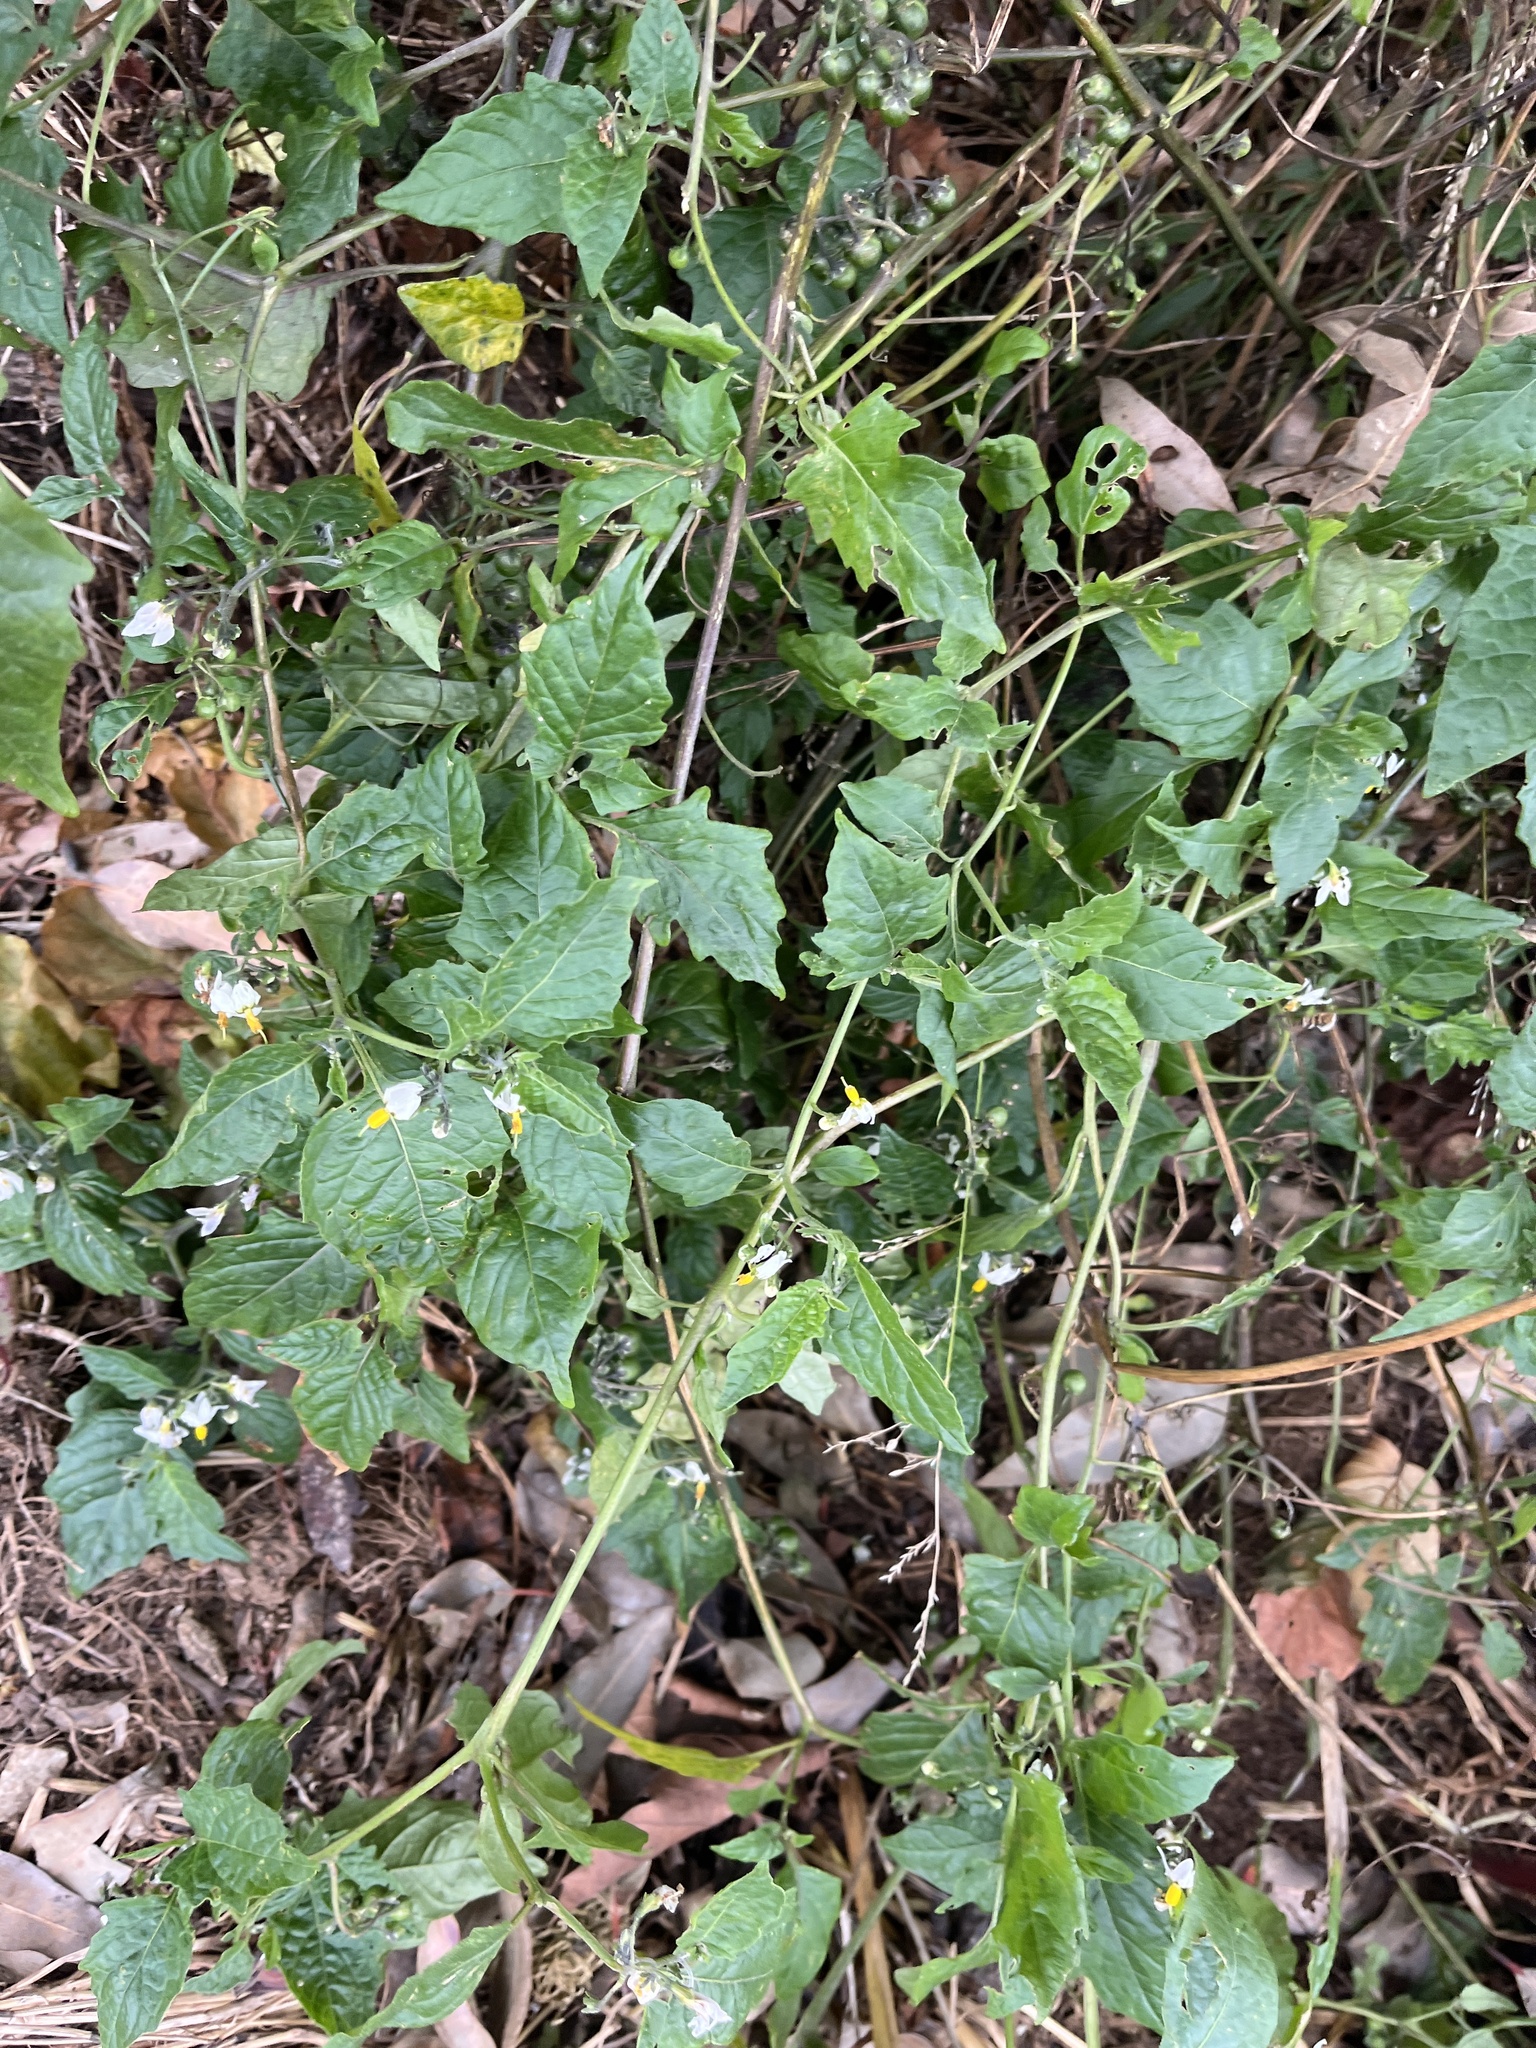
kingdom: Plantae
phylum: Tracheophyta
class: Magnoliopsida
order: Solanales
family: Solanaceae
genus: Solanum
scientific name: Solanum furcatum
